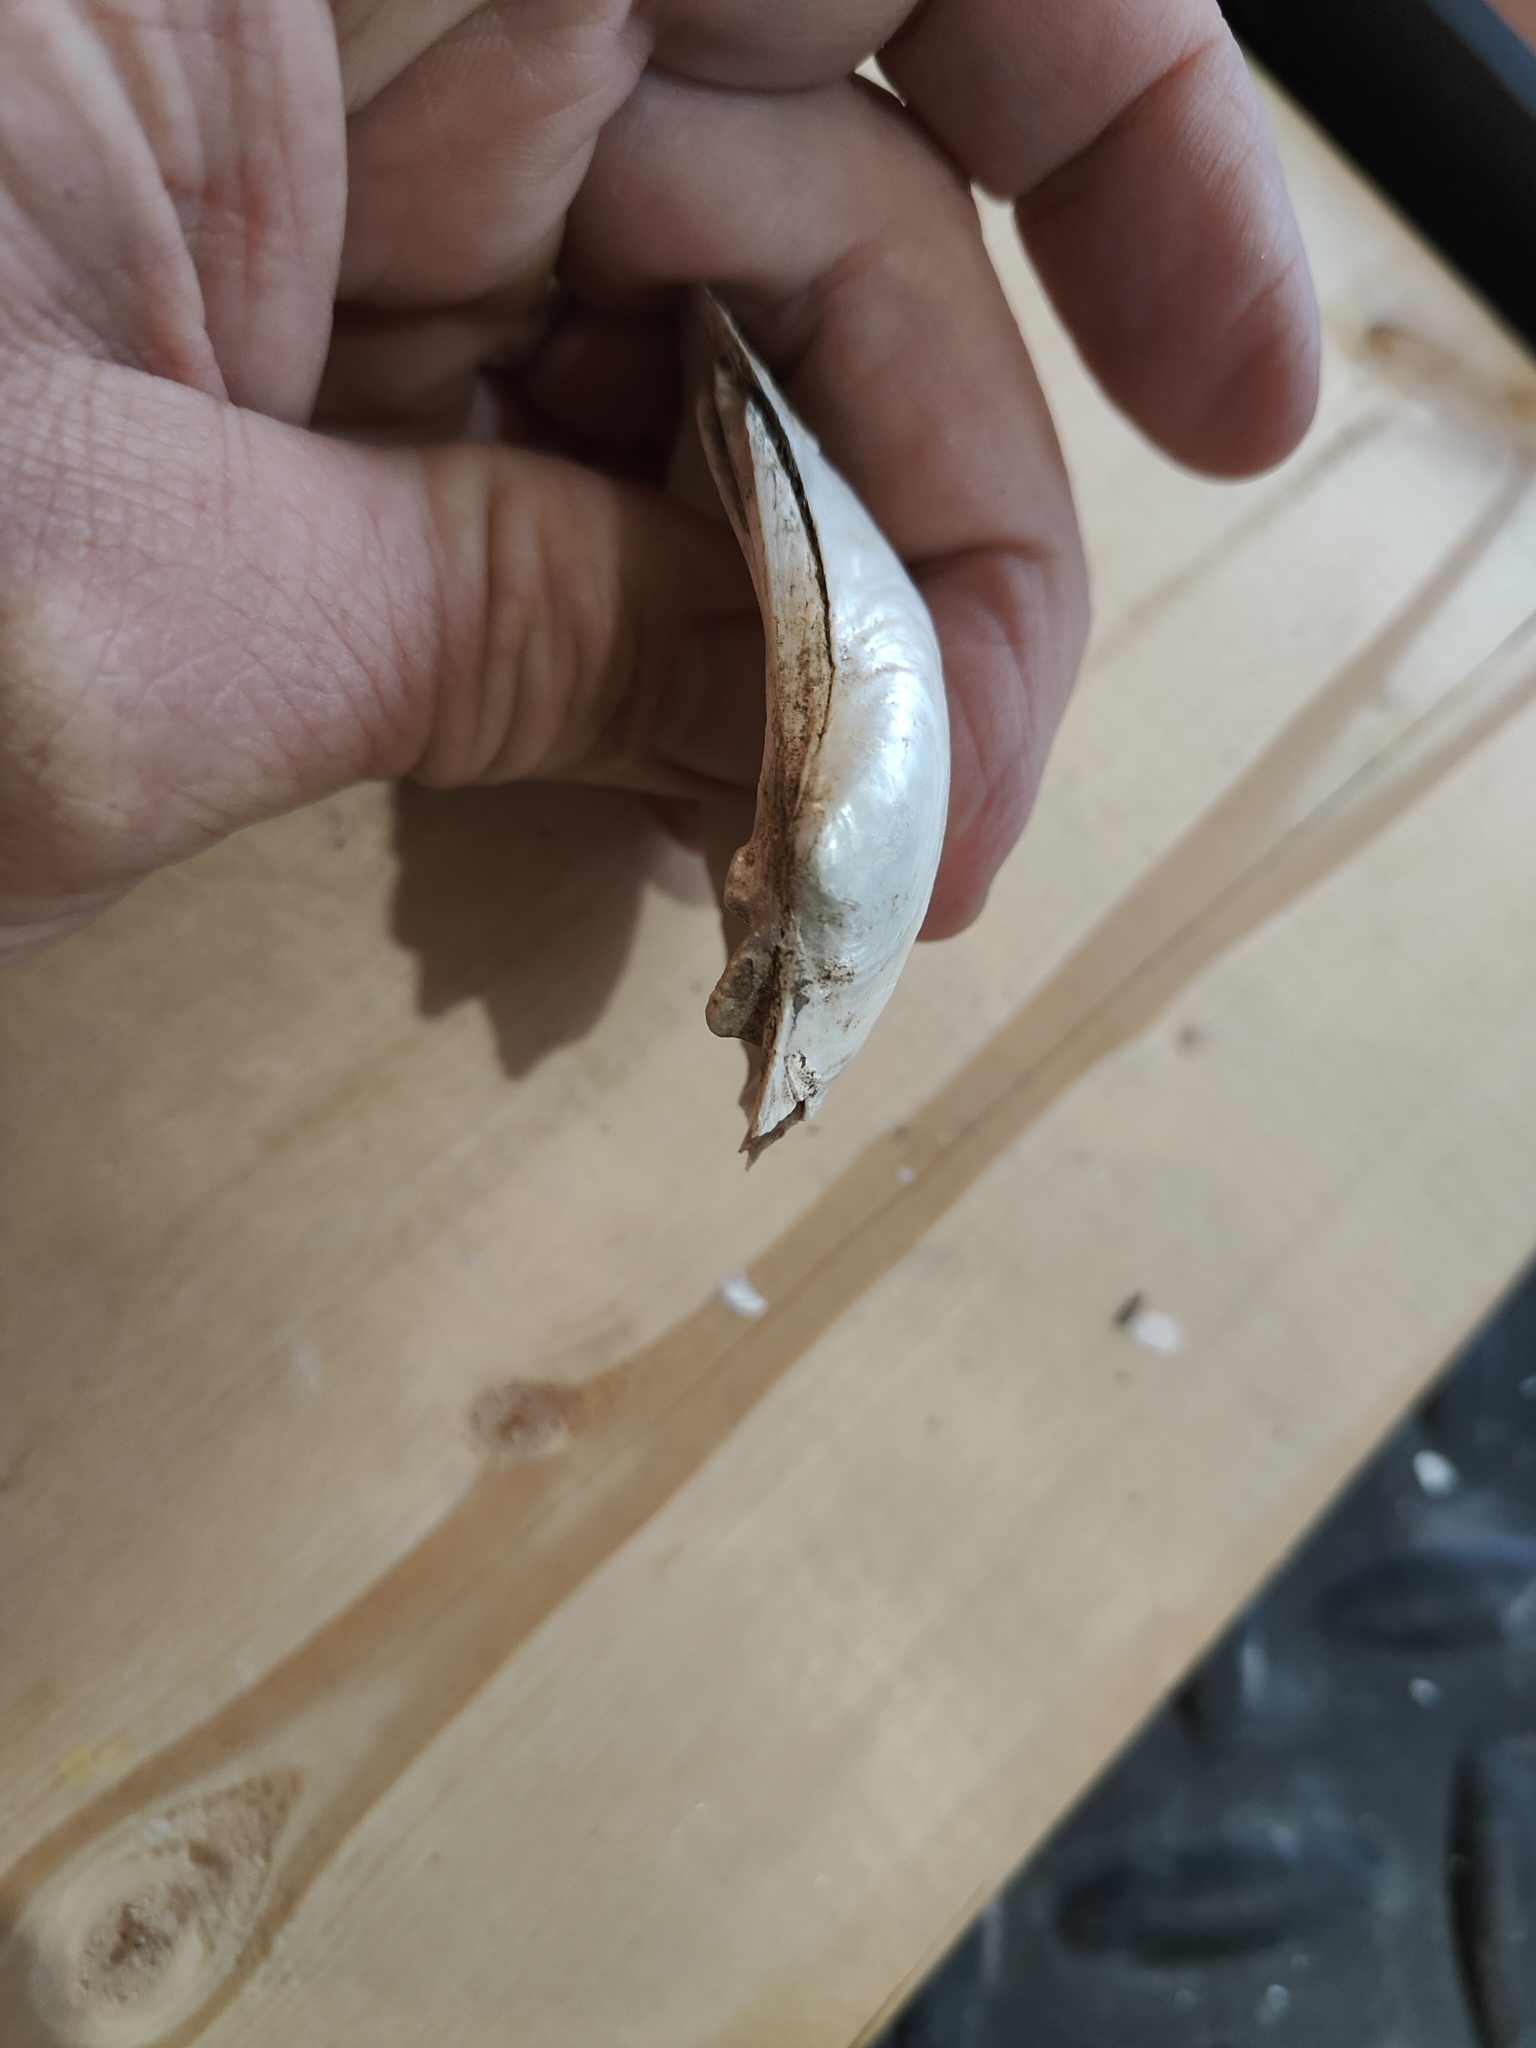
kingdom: Animalia
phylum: Mollusca
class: Bivalvia
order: Unionida
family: Unionidae
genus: Lampsilis
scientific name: Lampsilis cardium
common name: Plain pocketbook
